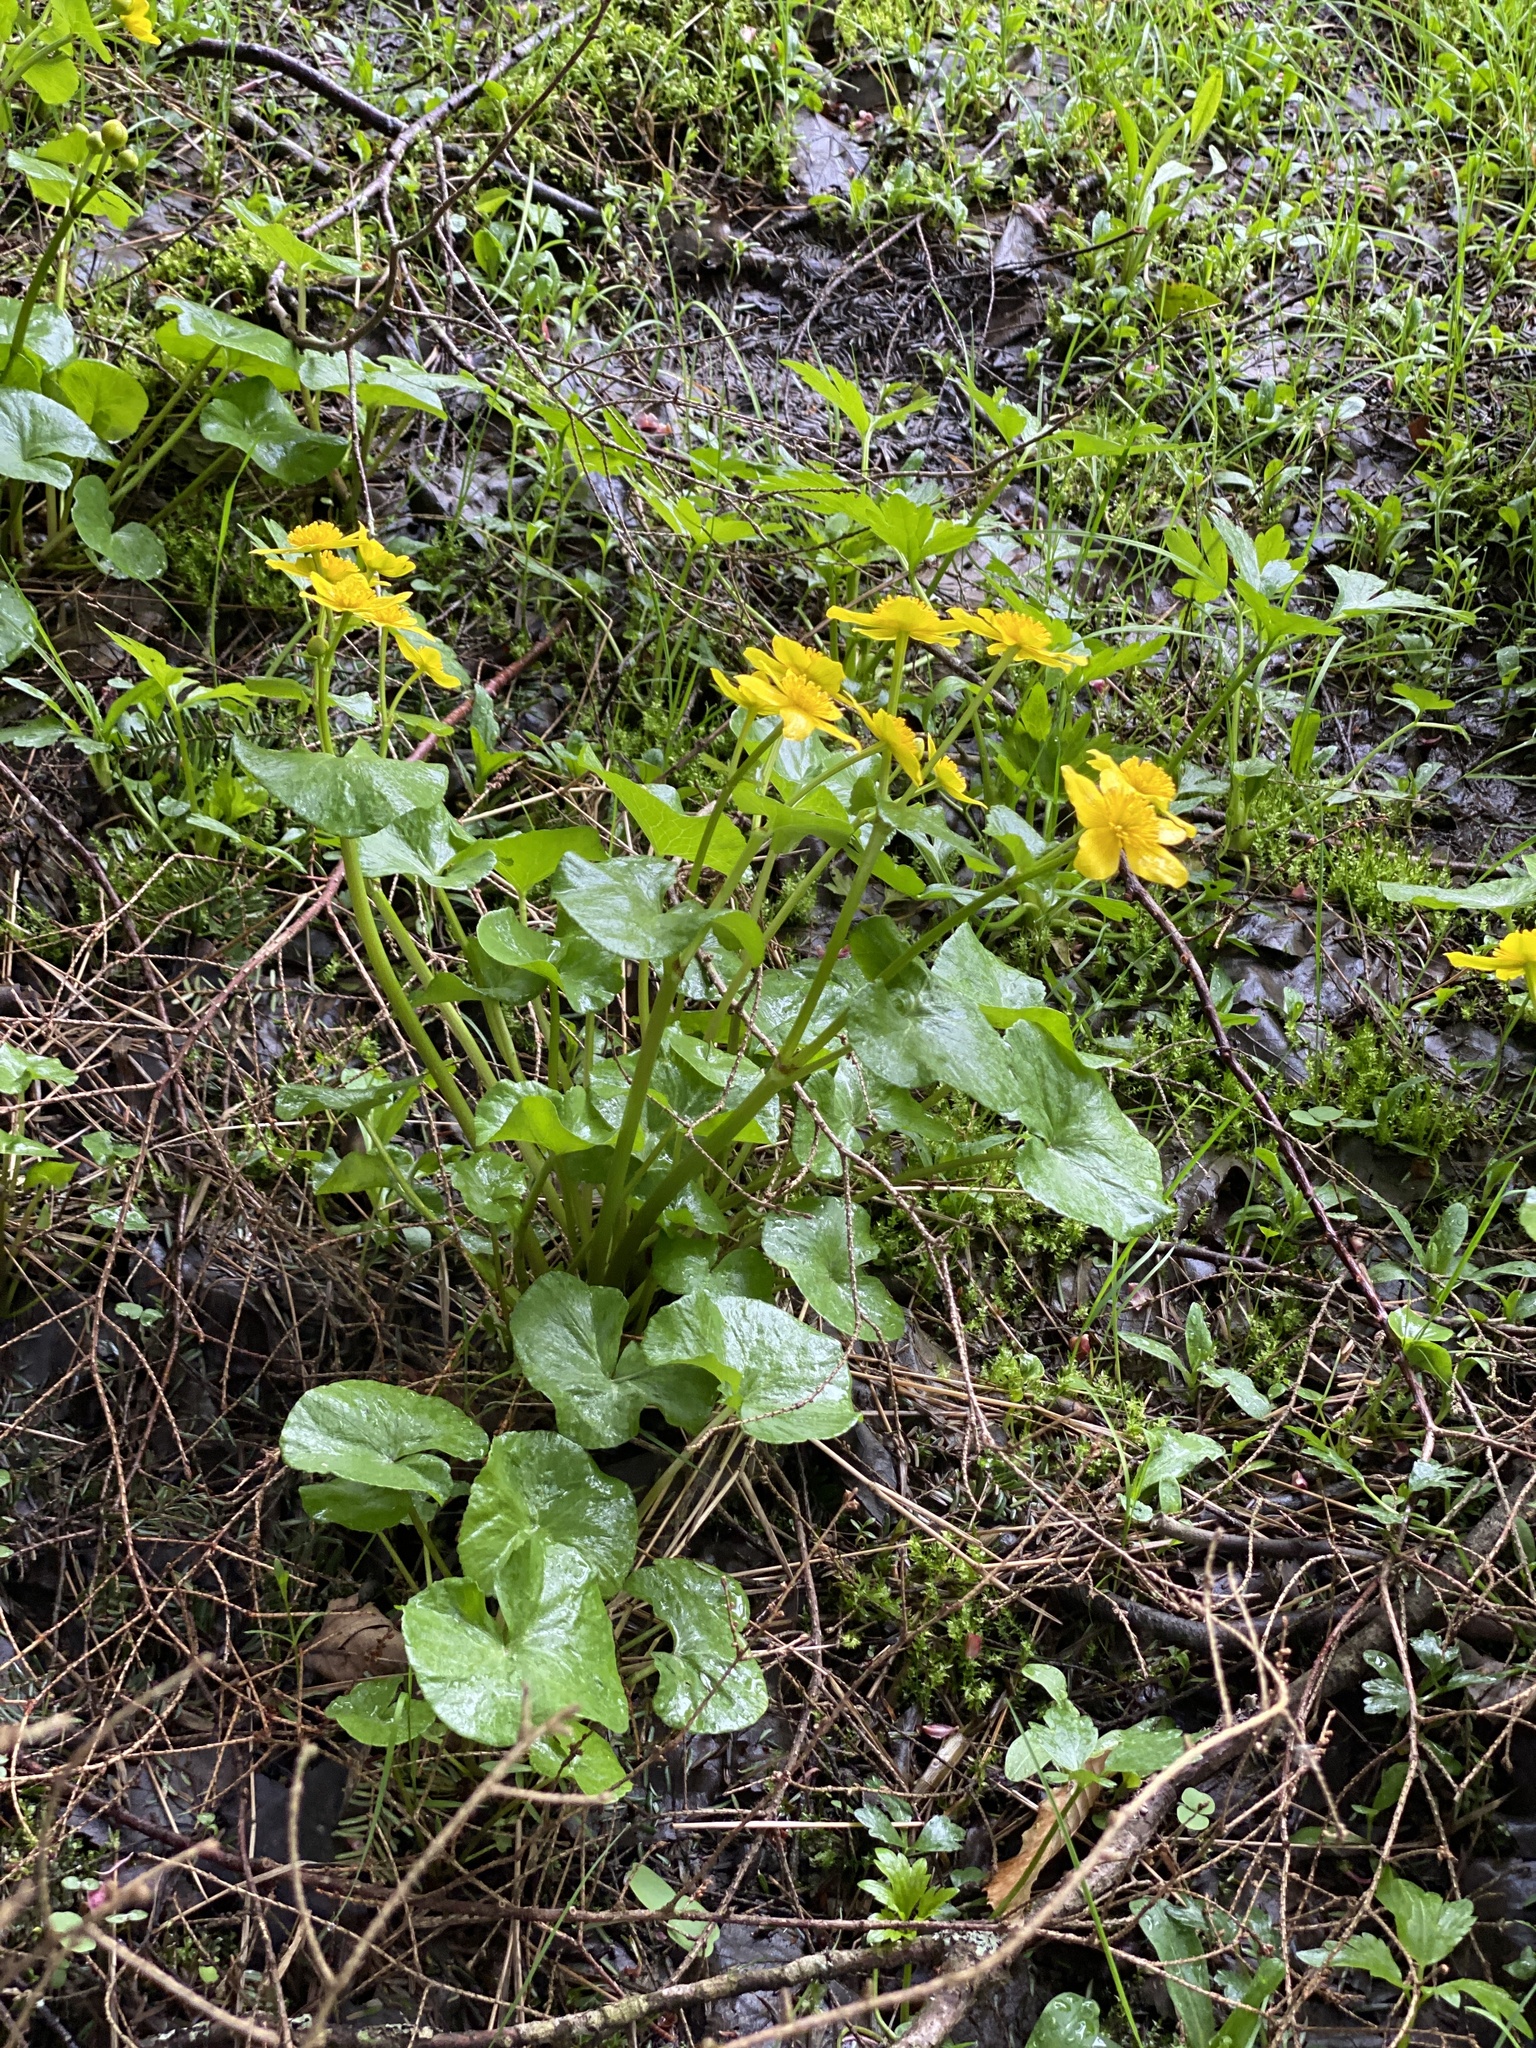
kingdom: Plantae
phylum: Tracheophyta
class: Magnoliopsida
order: Ranunculales
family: Ranunculaceae
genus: Caltha
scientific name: Caltha palustris
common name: Marsh marigold
